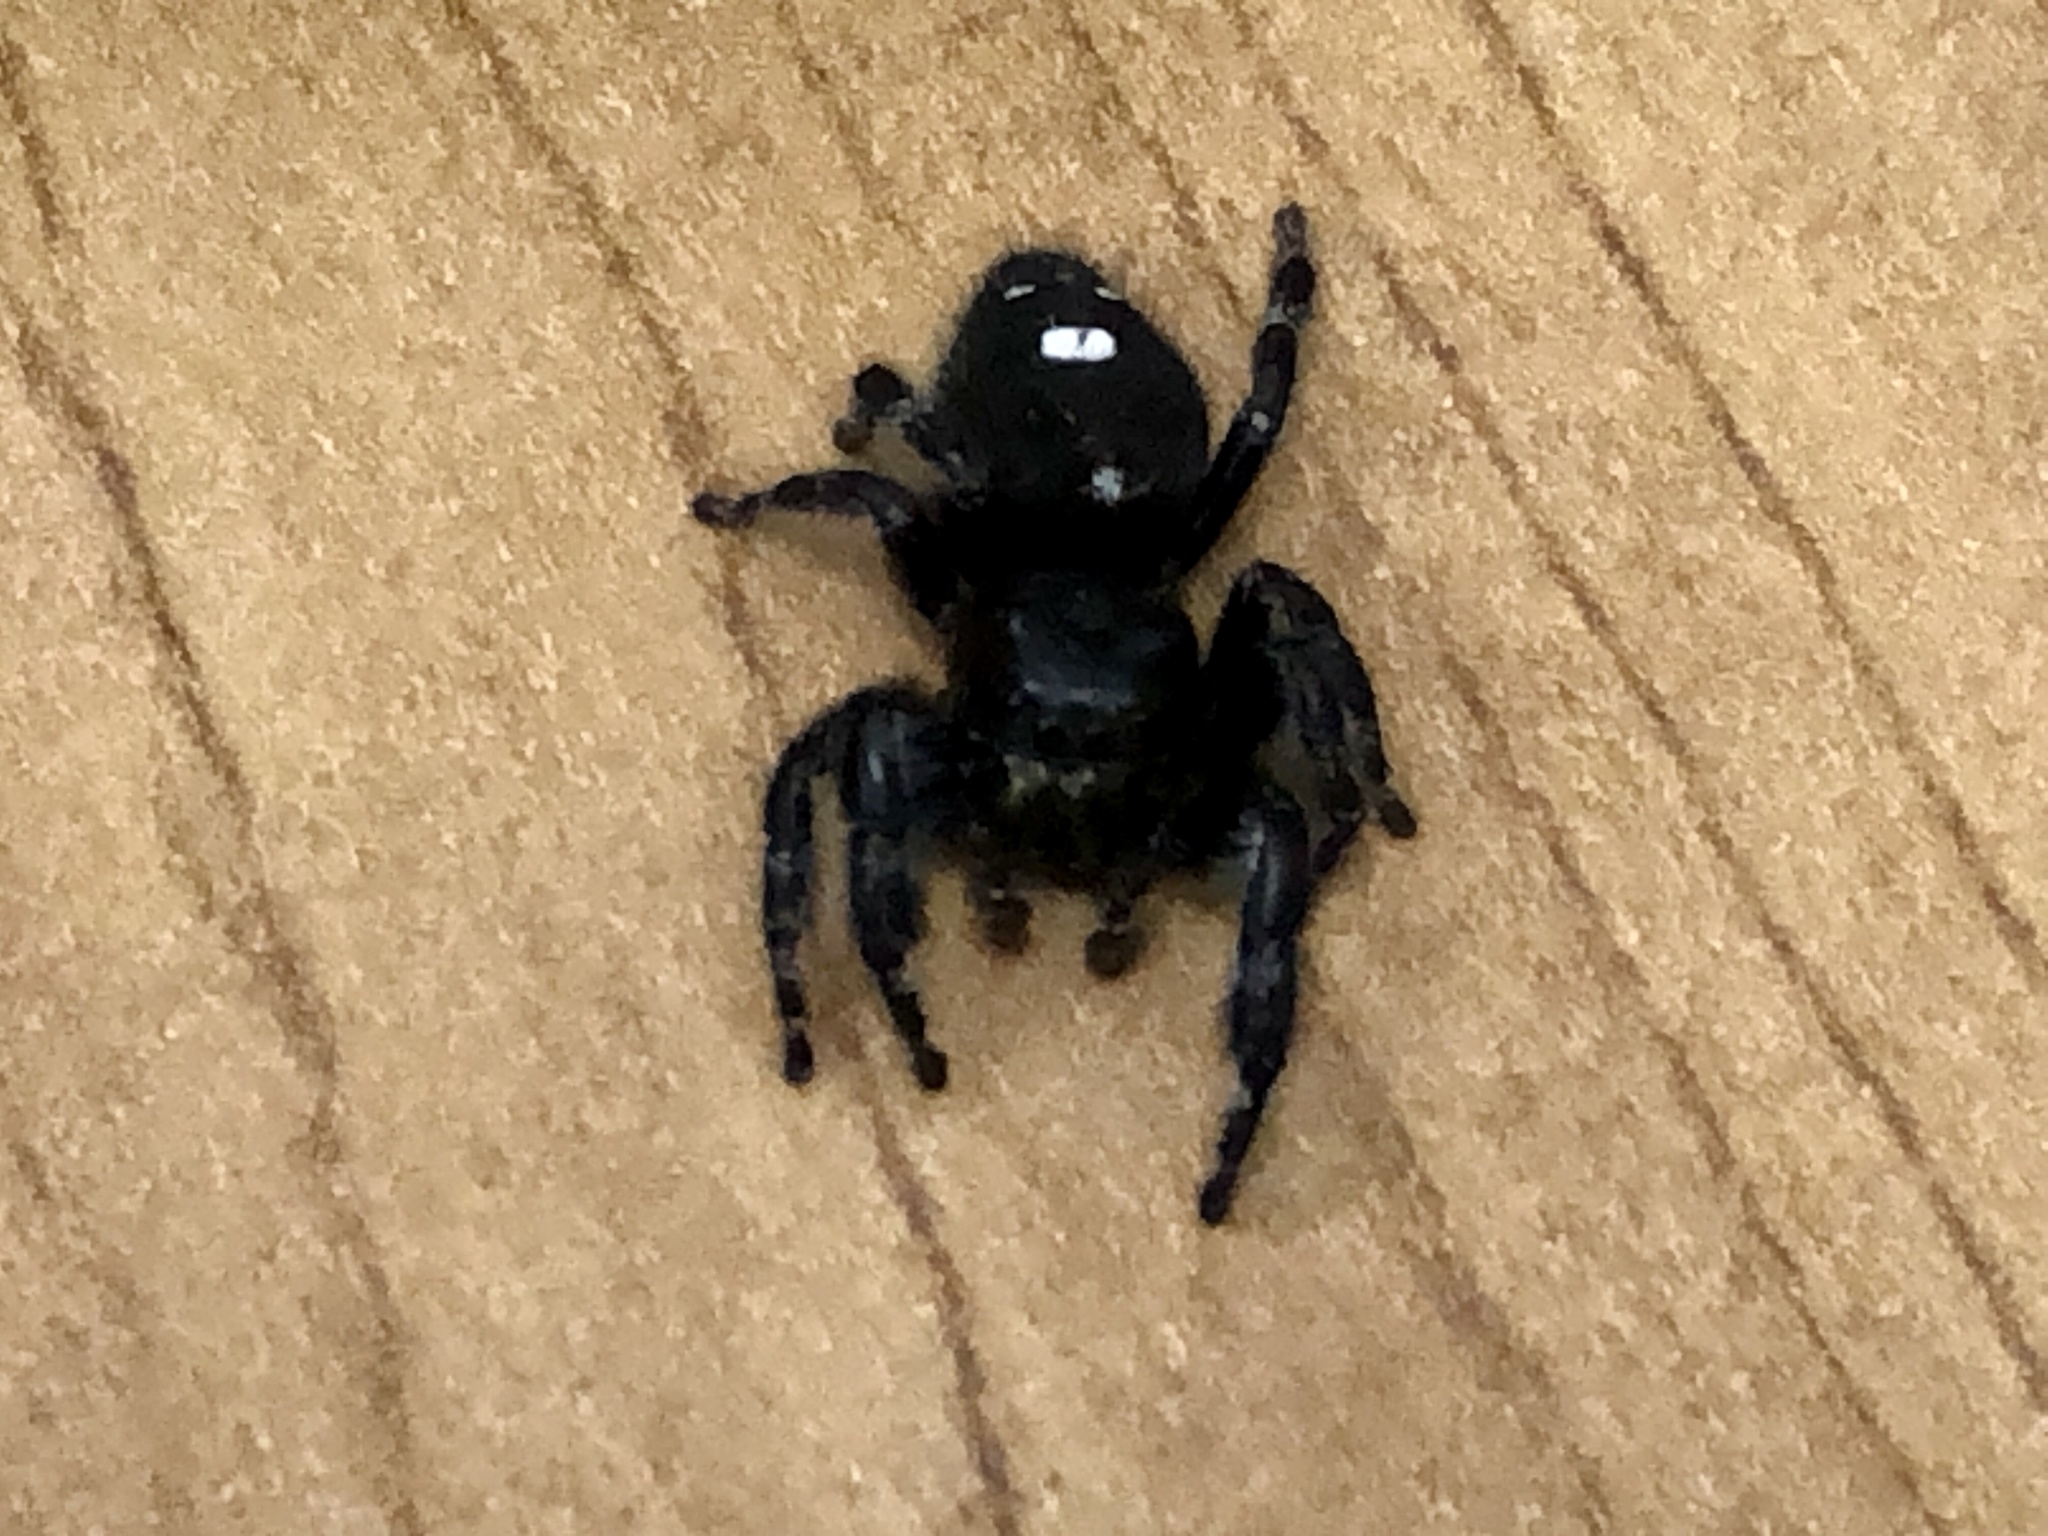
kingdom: Animalia
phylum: Arthropoda
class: Arachnida
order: Araneae
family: Salticidae
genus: Phidippus
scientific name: Phidippus audax
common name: Bold jumper
